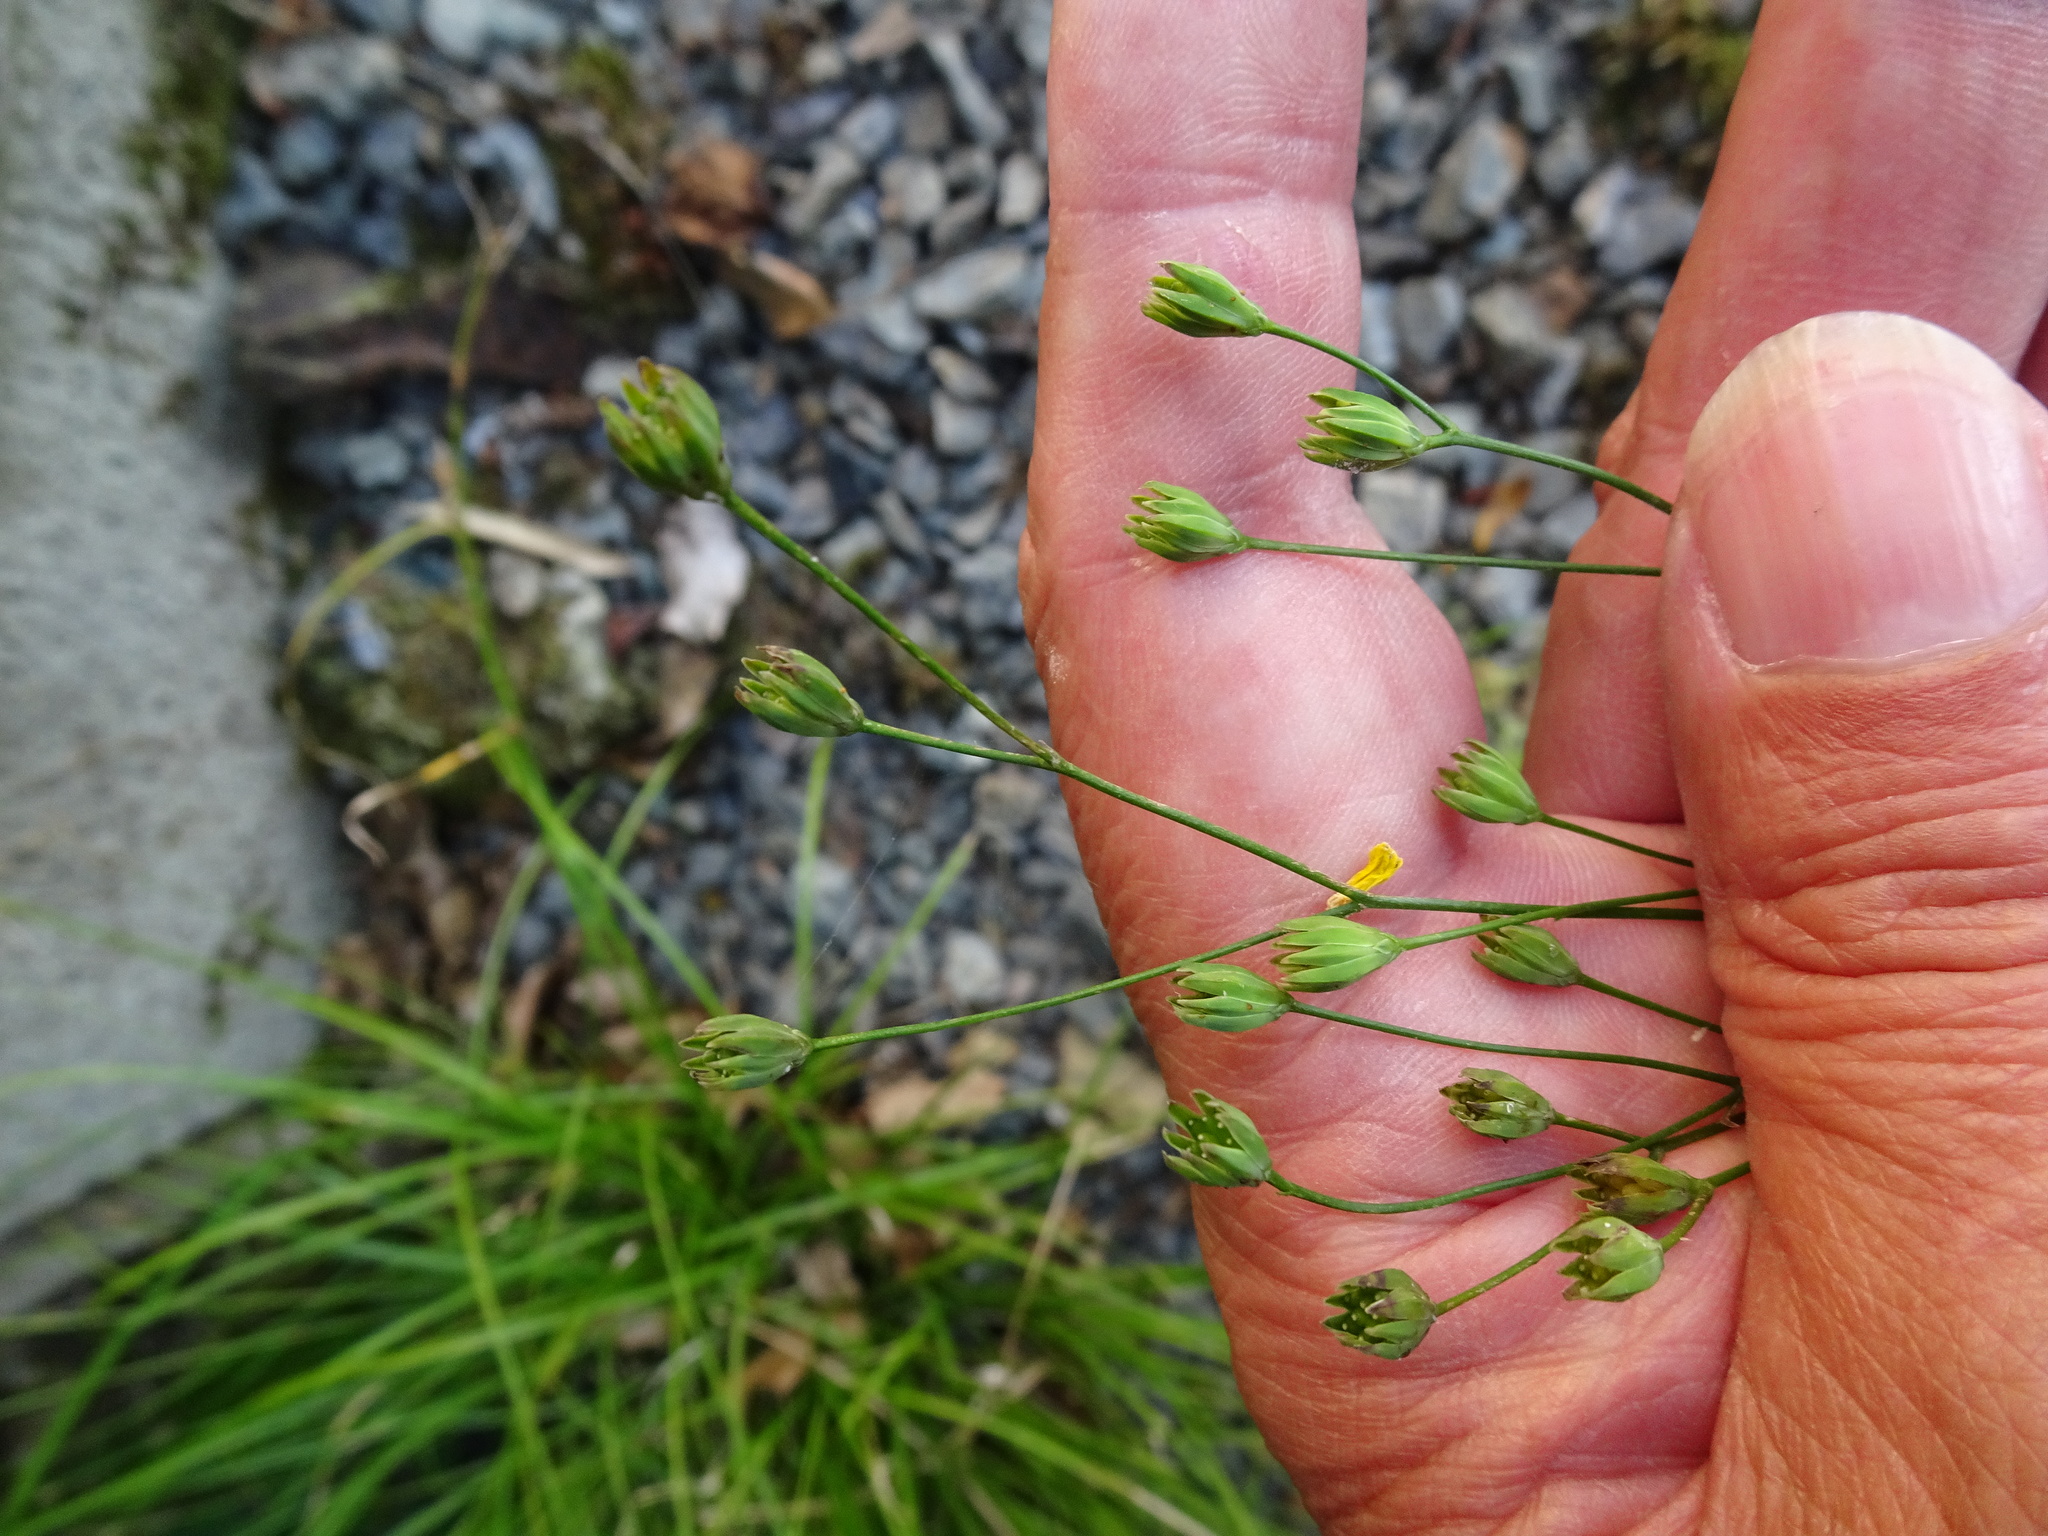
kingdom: Plantae
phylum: Tracheophyta
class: Magnoliopsida
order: Asterales
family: Asteraceae
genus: Lapsana
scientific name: Lapsana communis
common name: Nipplewort
